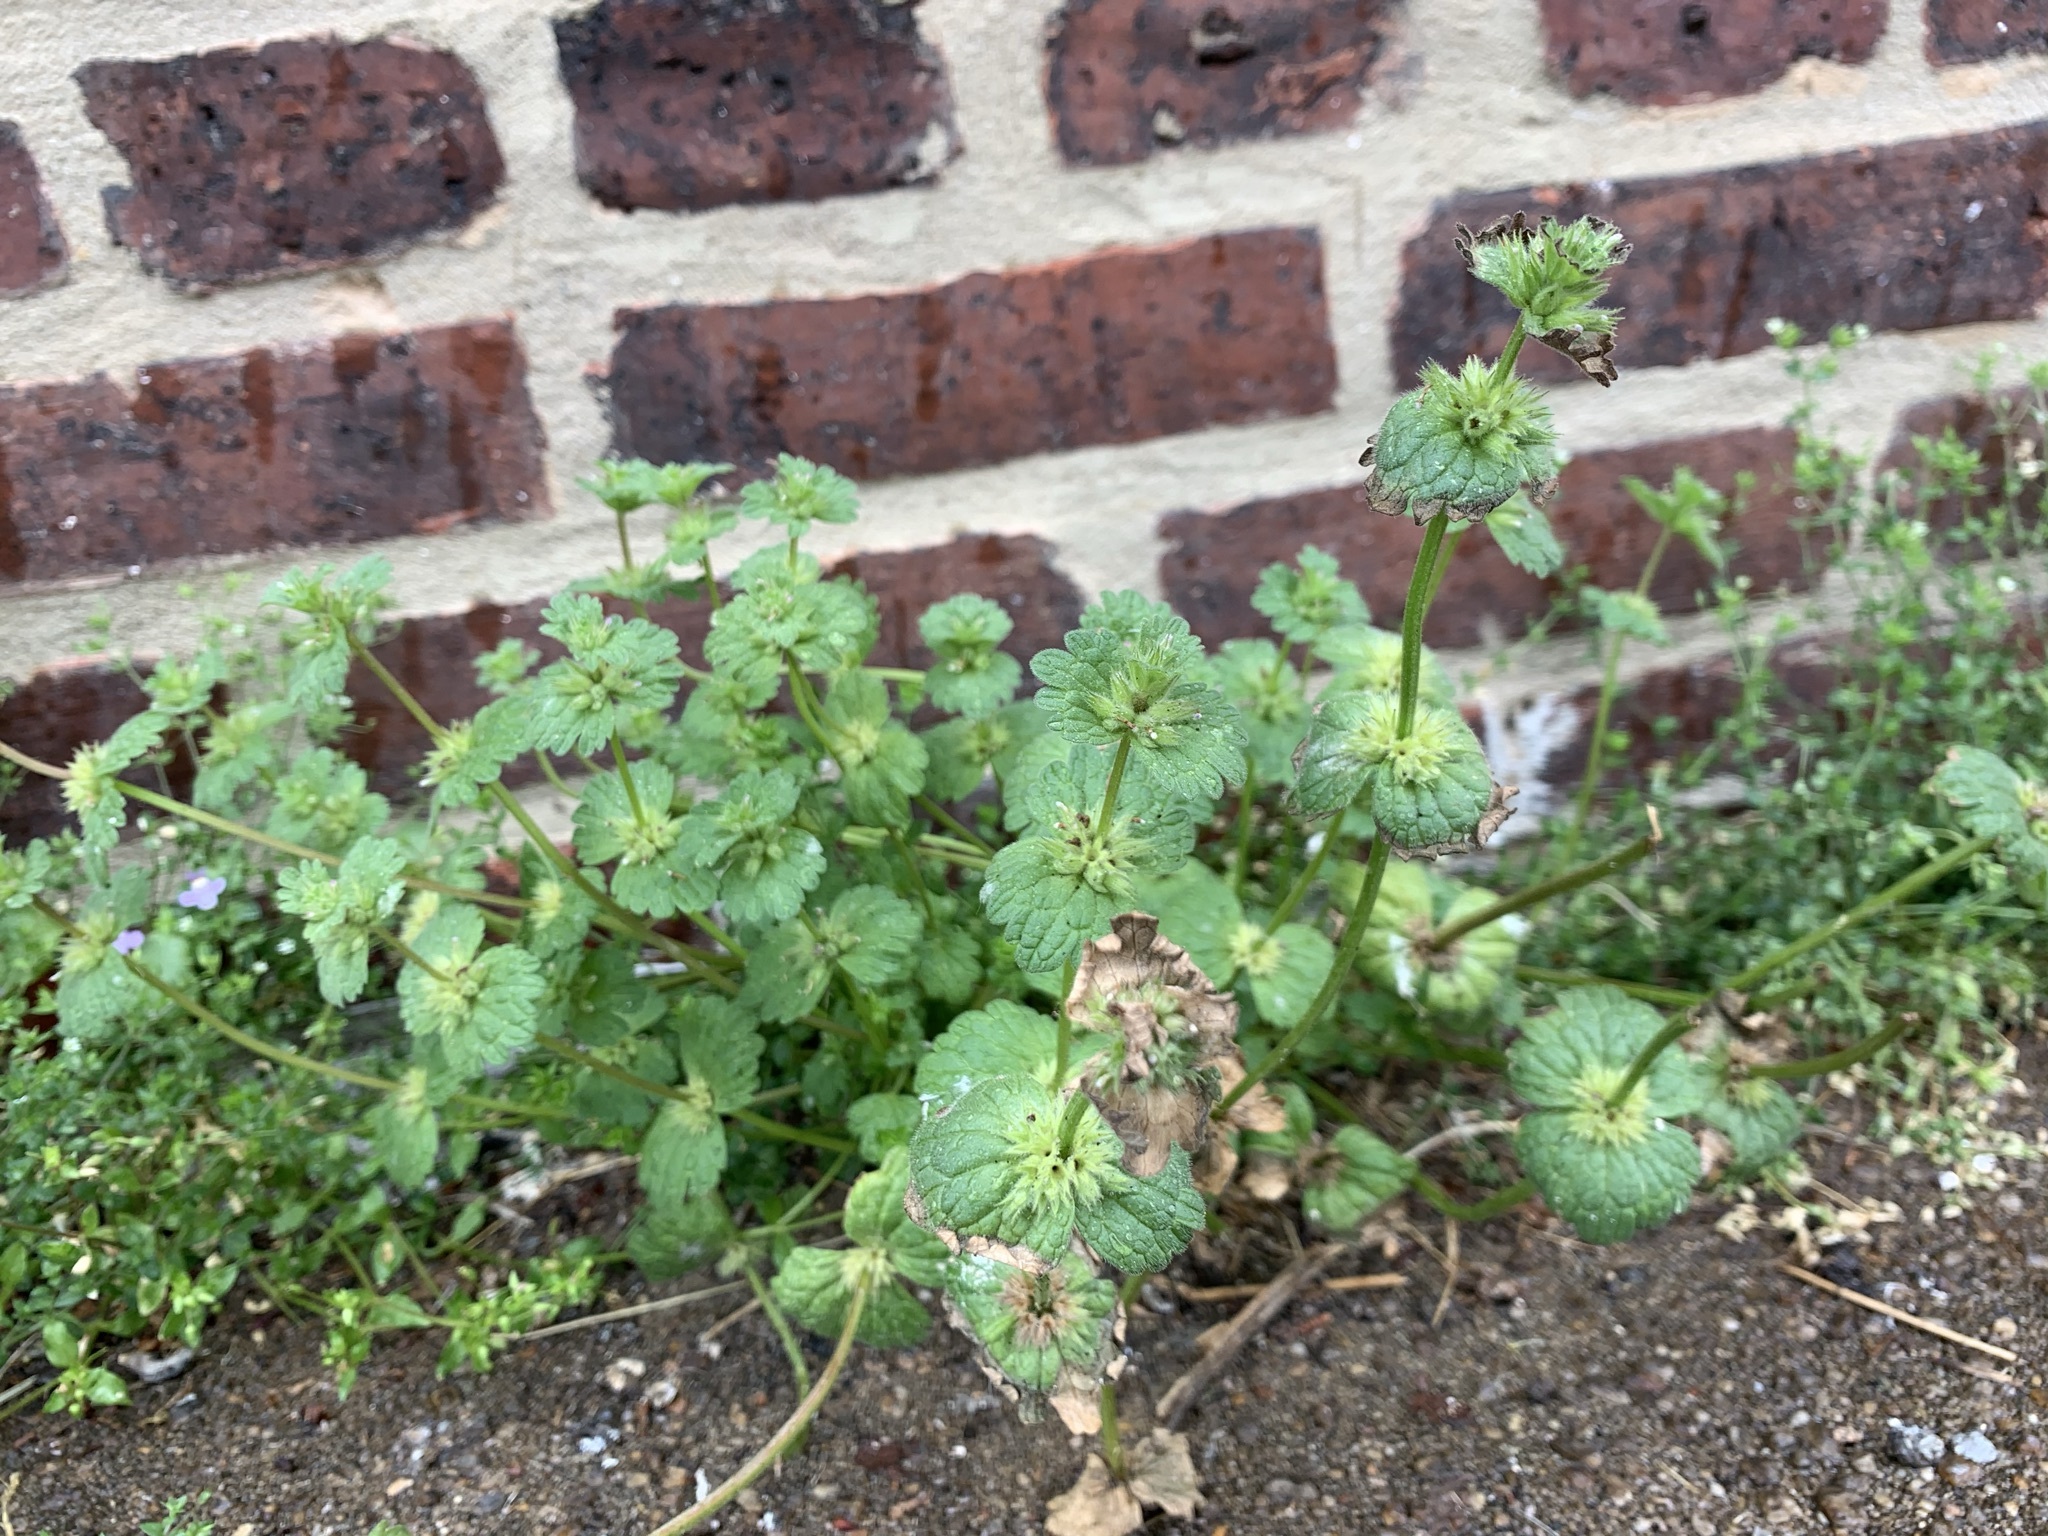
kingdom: Plantae
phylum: Tracheophyta
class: Magnoliopsida
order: Lamiales
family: Lamiaceae
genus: Lamium
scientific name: Lamium amplexicaule
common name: Henbit dead-nettle
